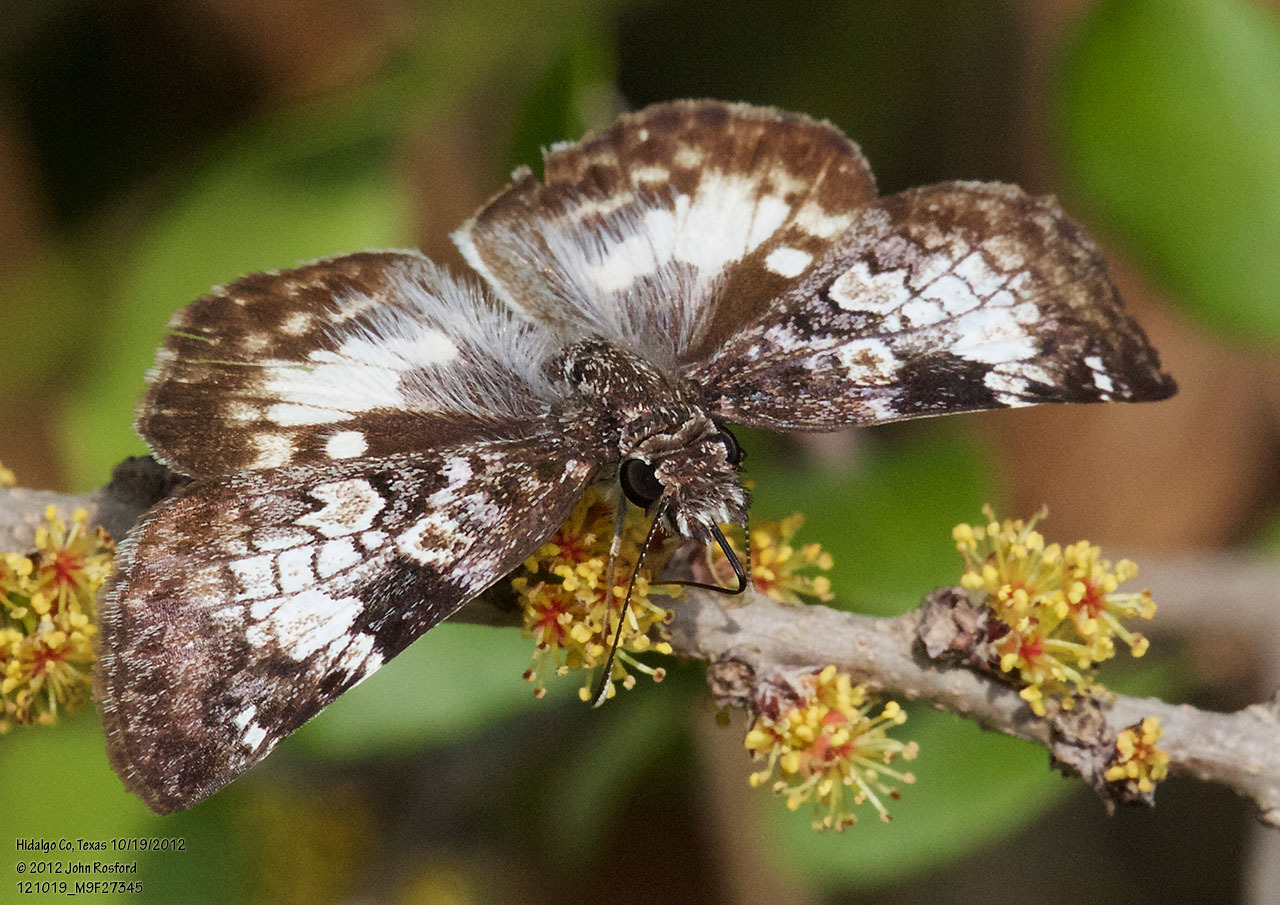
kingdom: Animalia
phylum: Arthropoda
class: Insecta
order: Lepidoptera
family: Hesperiidae
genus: Chiothion
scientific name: Chiothion georgina
